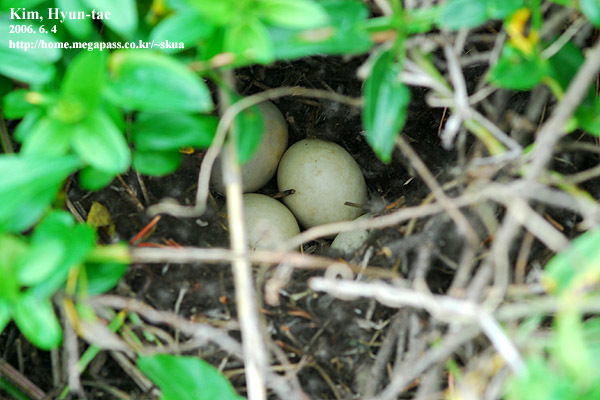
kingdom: Animalia
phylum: Chordata
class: Aves
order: Anseriformes
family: Anatidae
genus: Anas
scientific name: Anas zonorhyncha
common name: Eastern spot-billed duck
